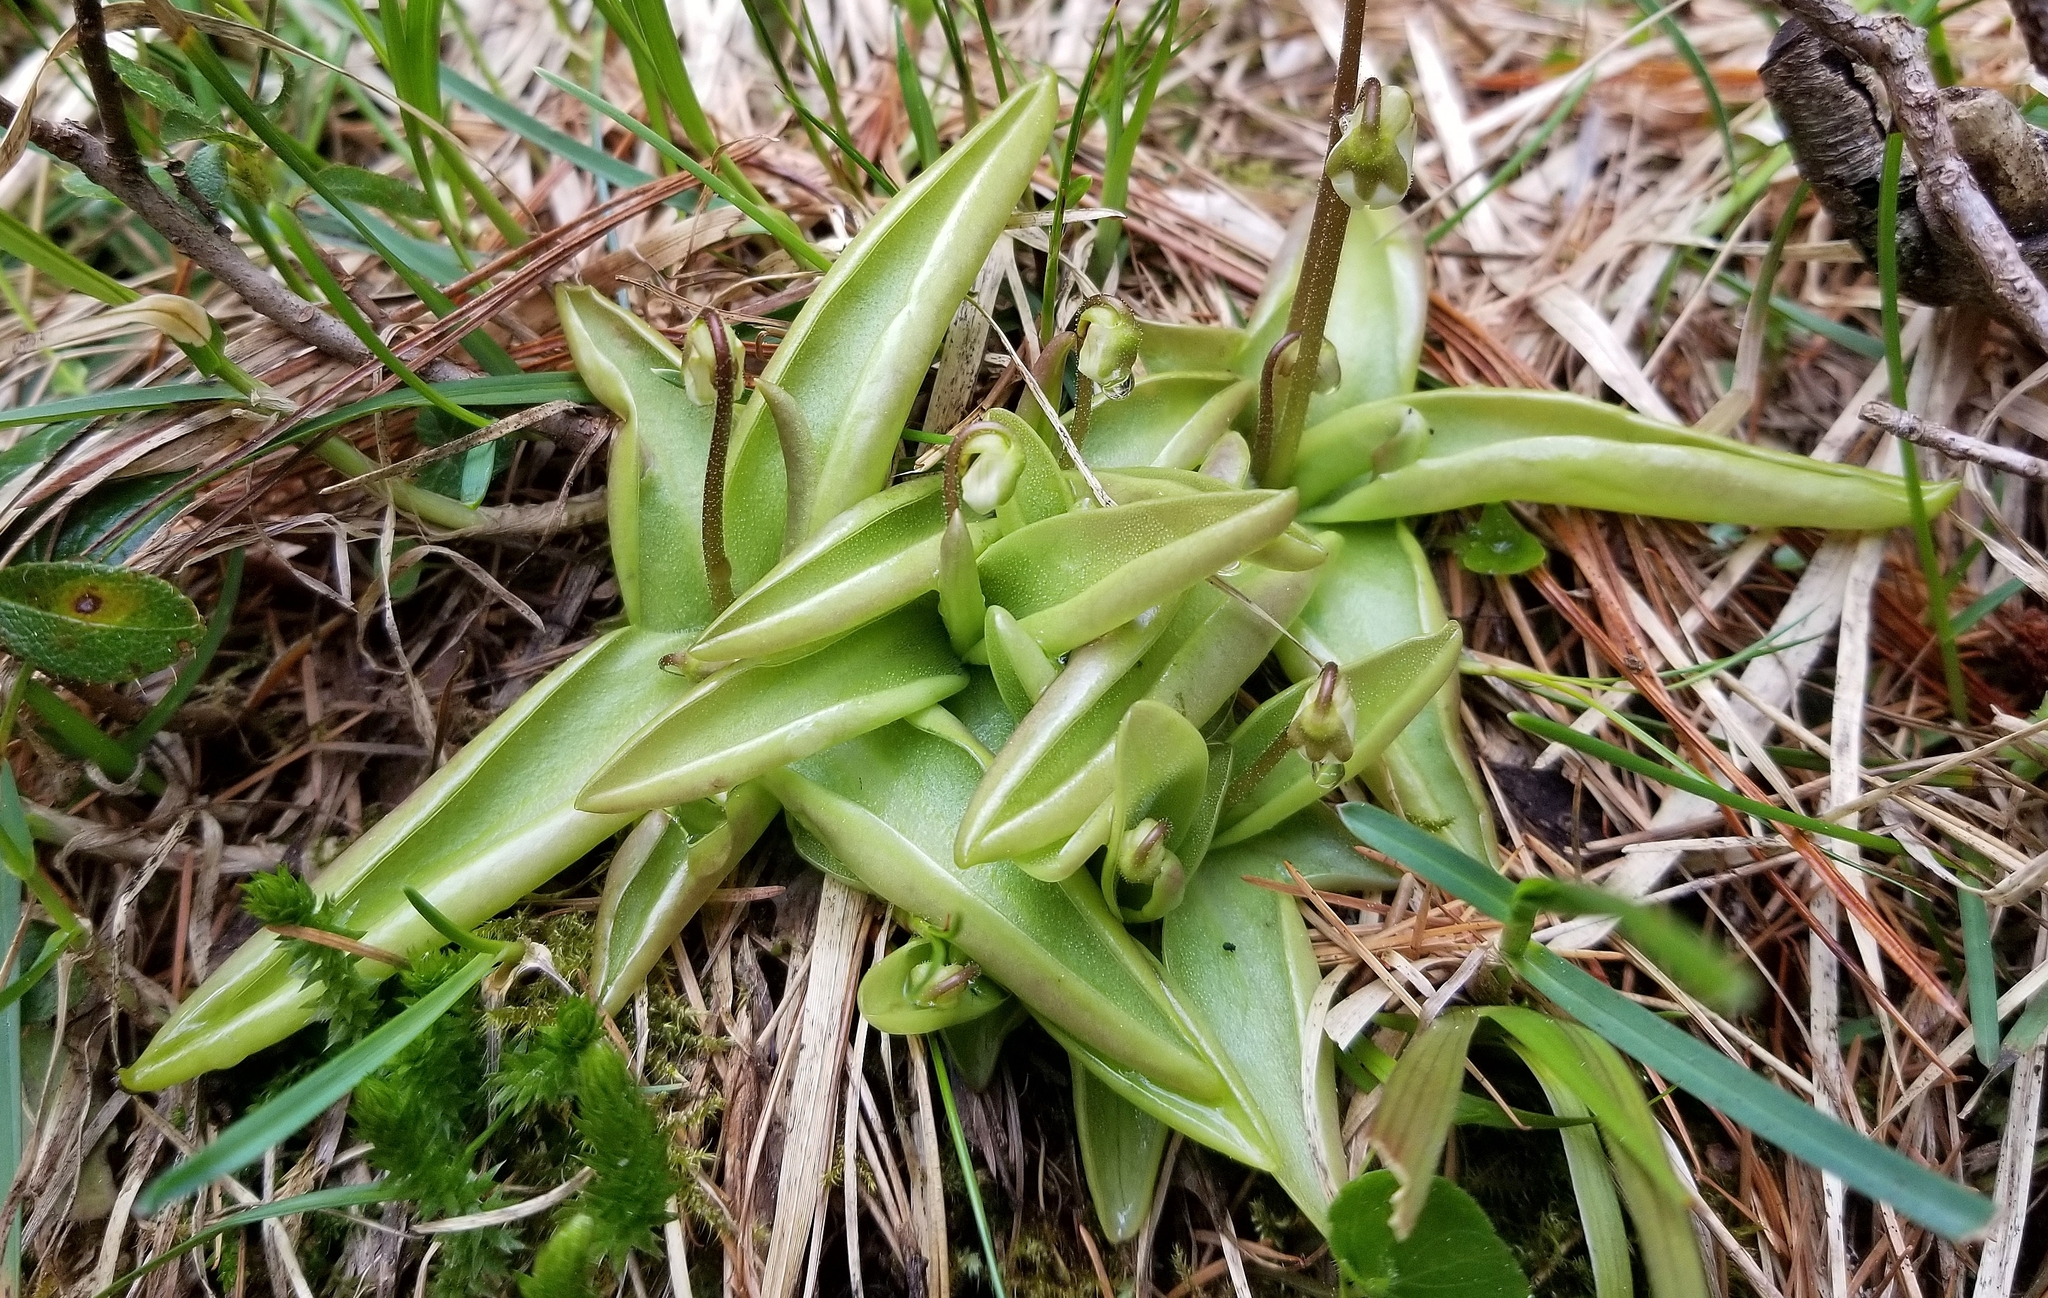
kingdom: Plantae
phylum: Tracheophyta
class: Magnoliopsida
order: Lamiales
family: Lentibulariaceae
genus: Pinguicula
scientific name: Pinguicula alpina
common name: Alpine butterwort
